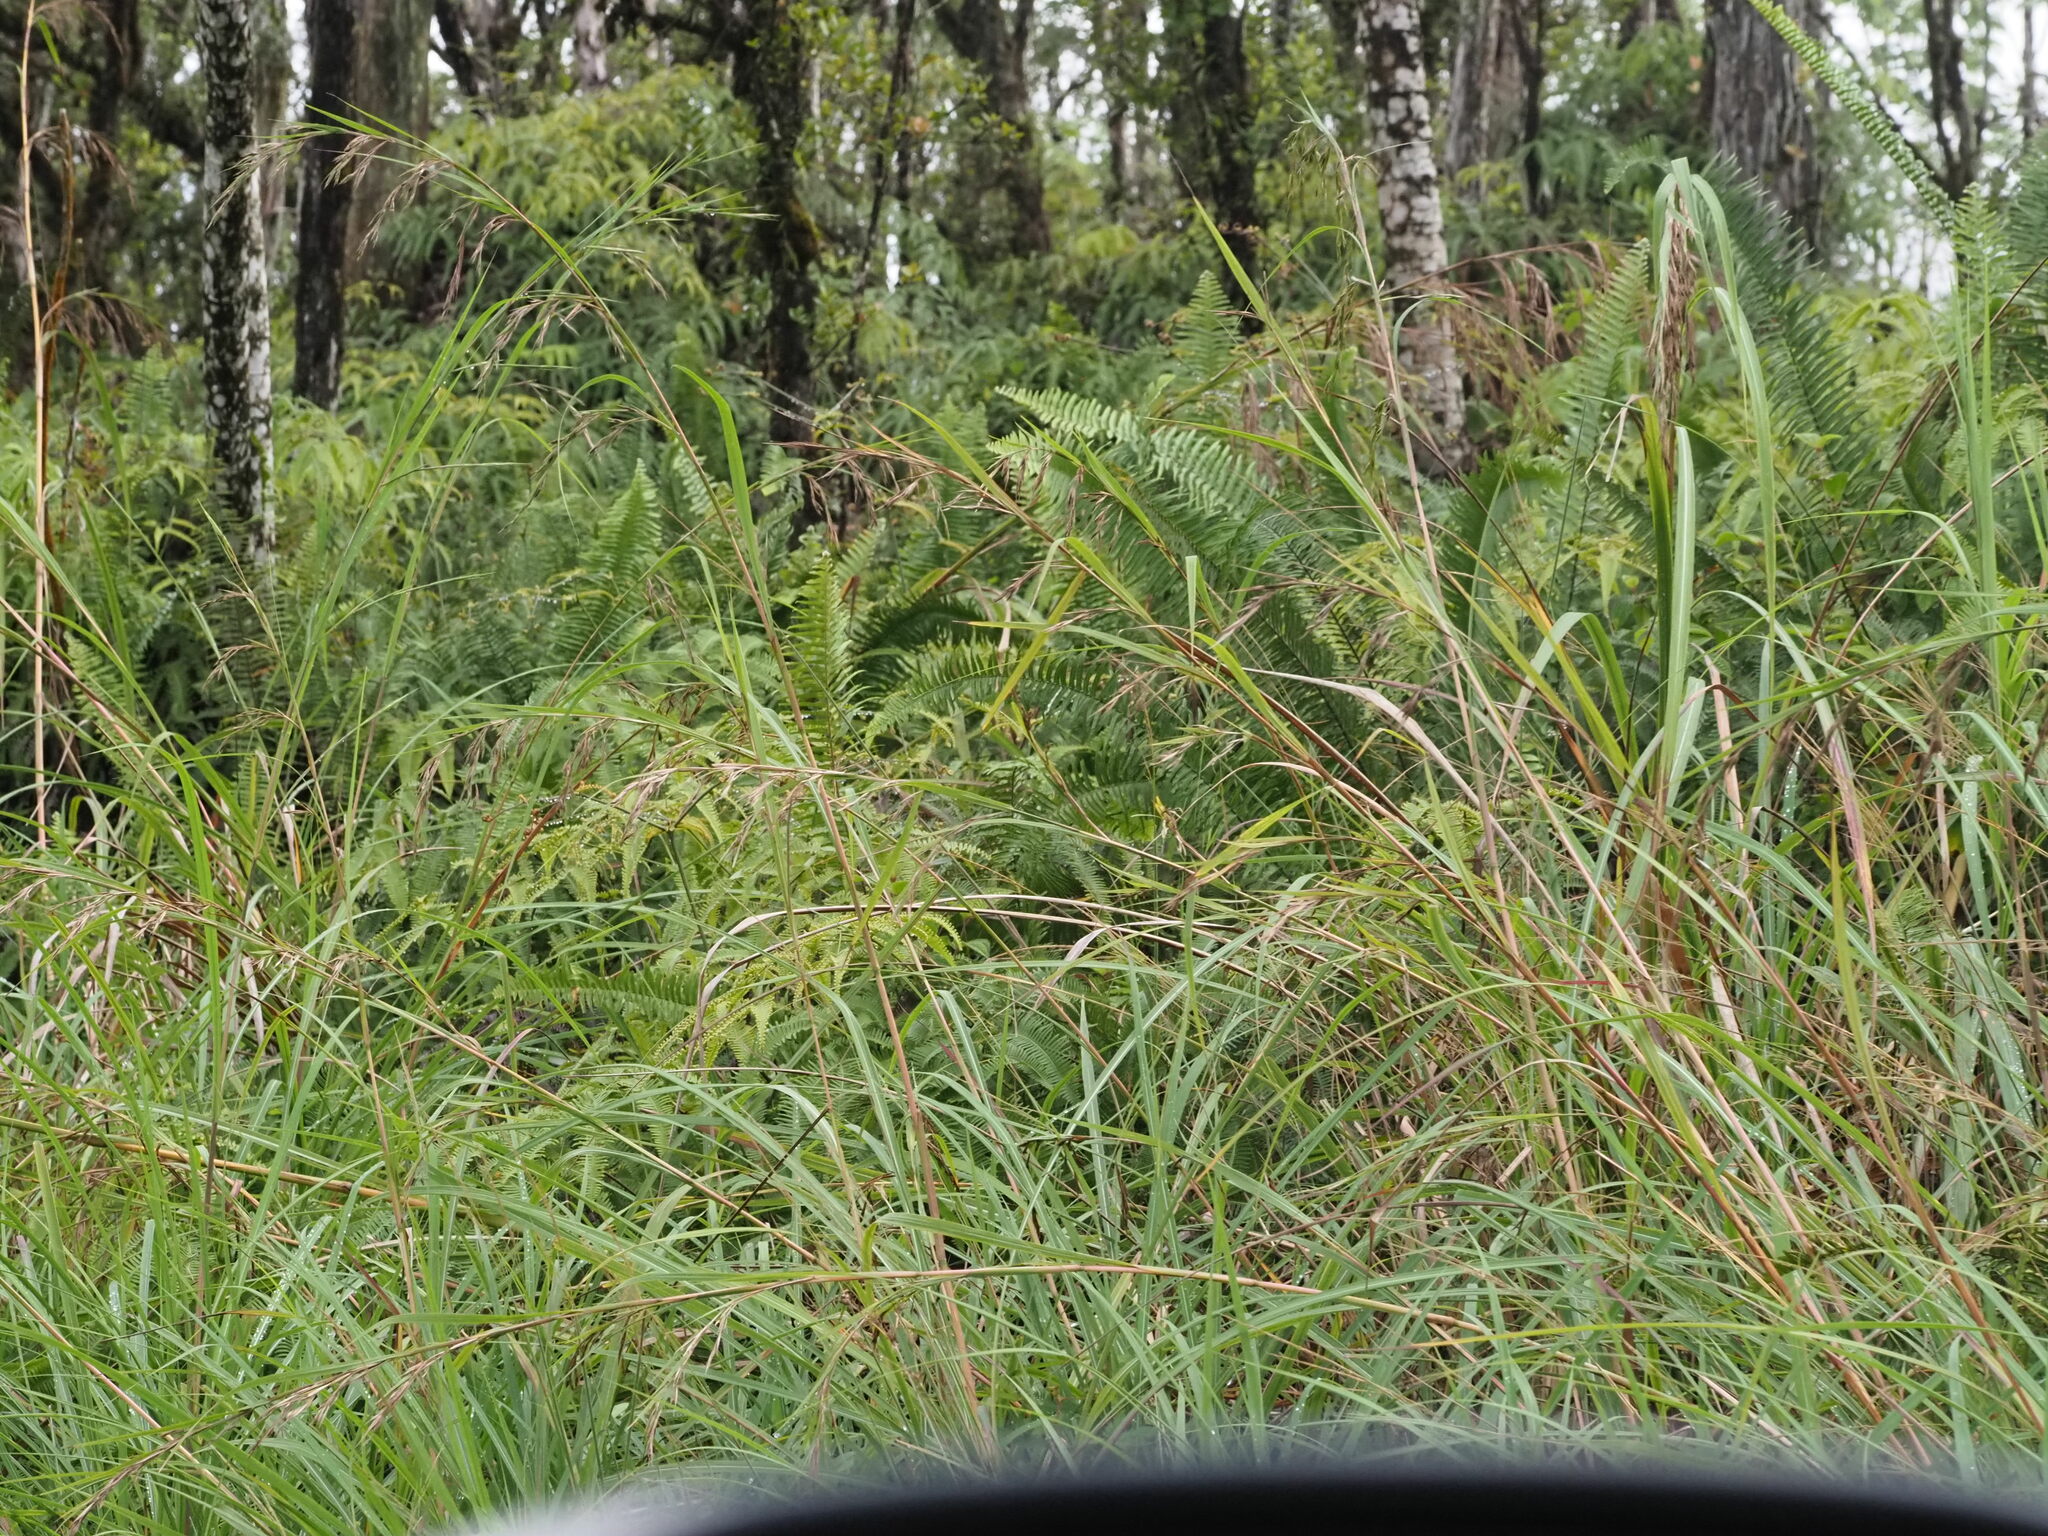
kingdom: Plantae
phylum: Tracheophyta
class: Liliopsida
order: Poales
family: Poaceae
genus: Themeda
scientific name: Themeda villosa
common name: Silky kangaroo grass
